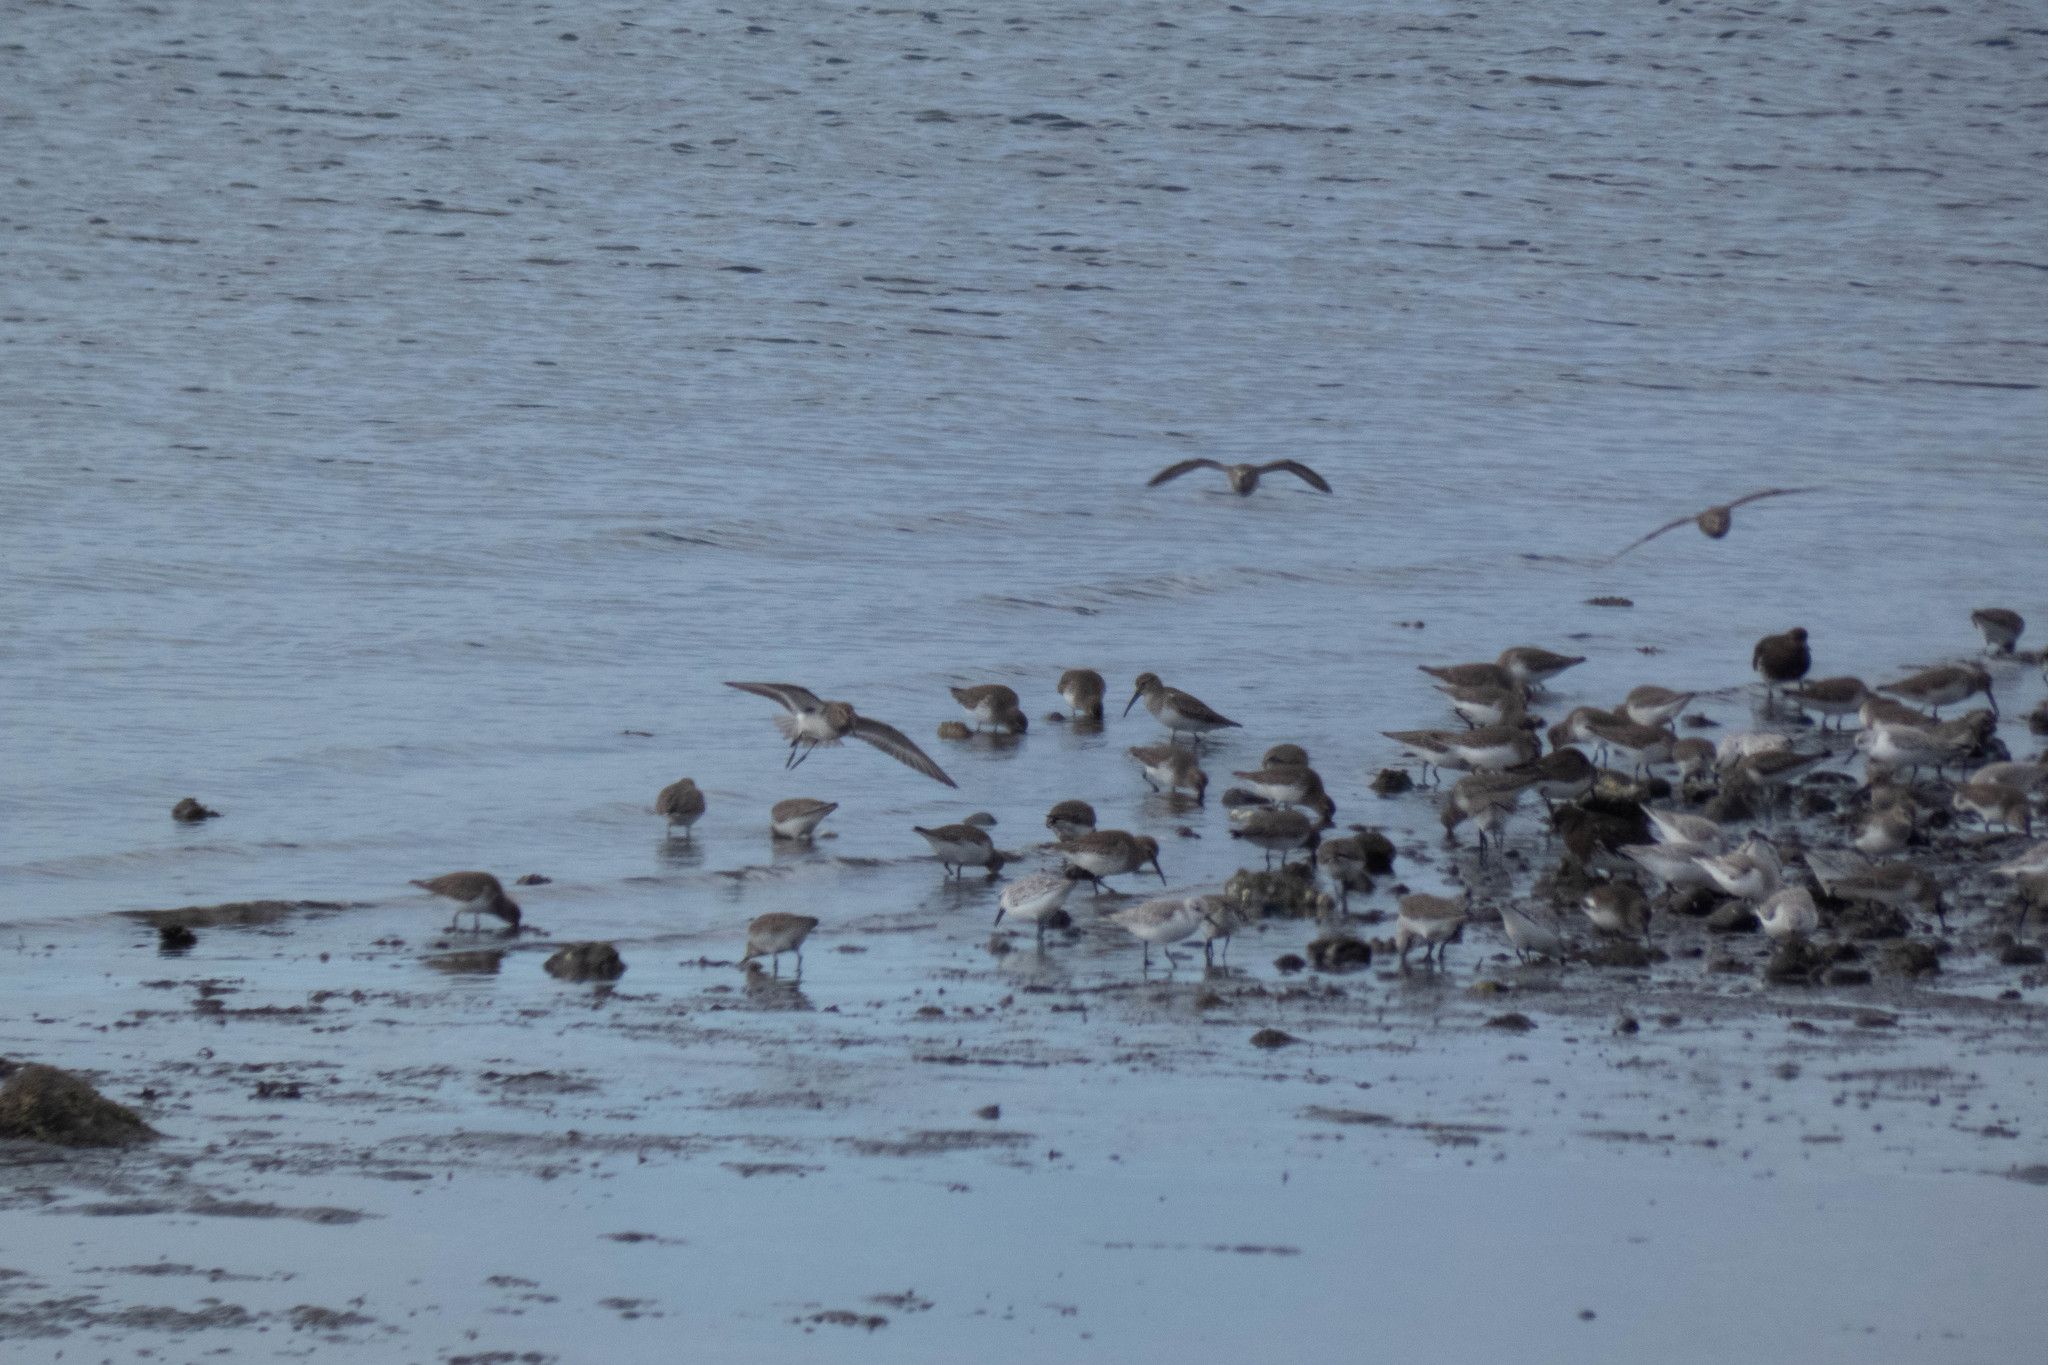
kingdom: Animalia
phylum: Chordata
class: Aves
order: Charadriiformes
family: Scolopacidae
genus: Calidris
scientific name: Calidris alba
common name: Sanderling
